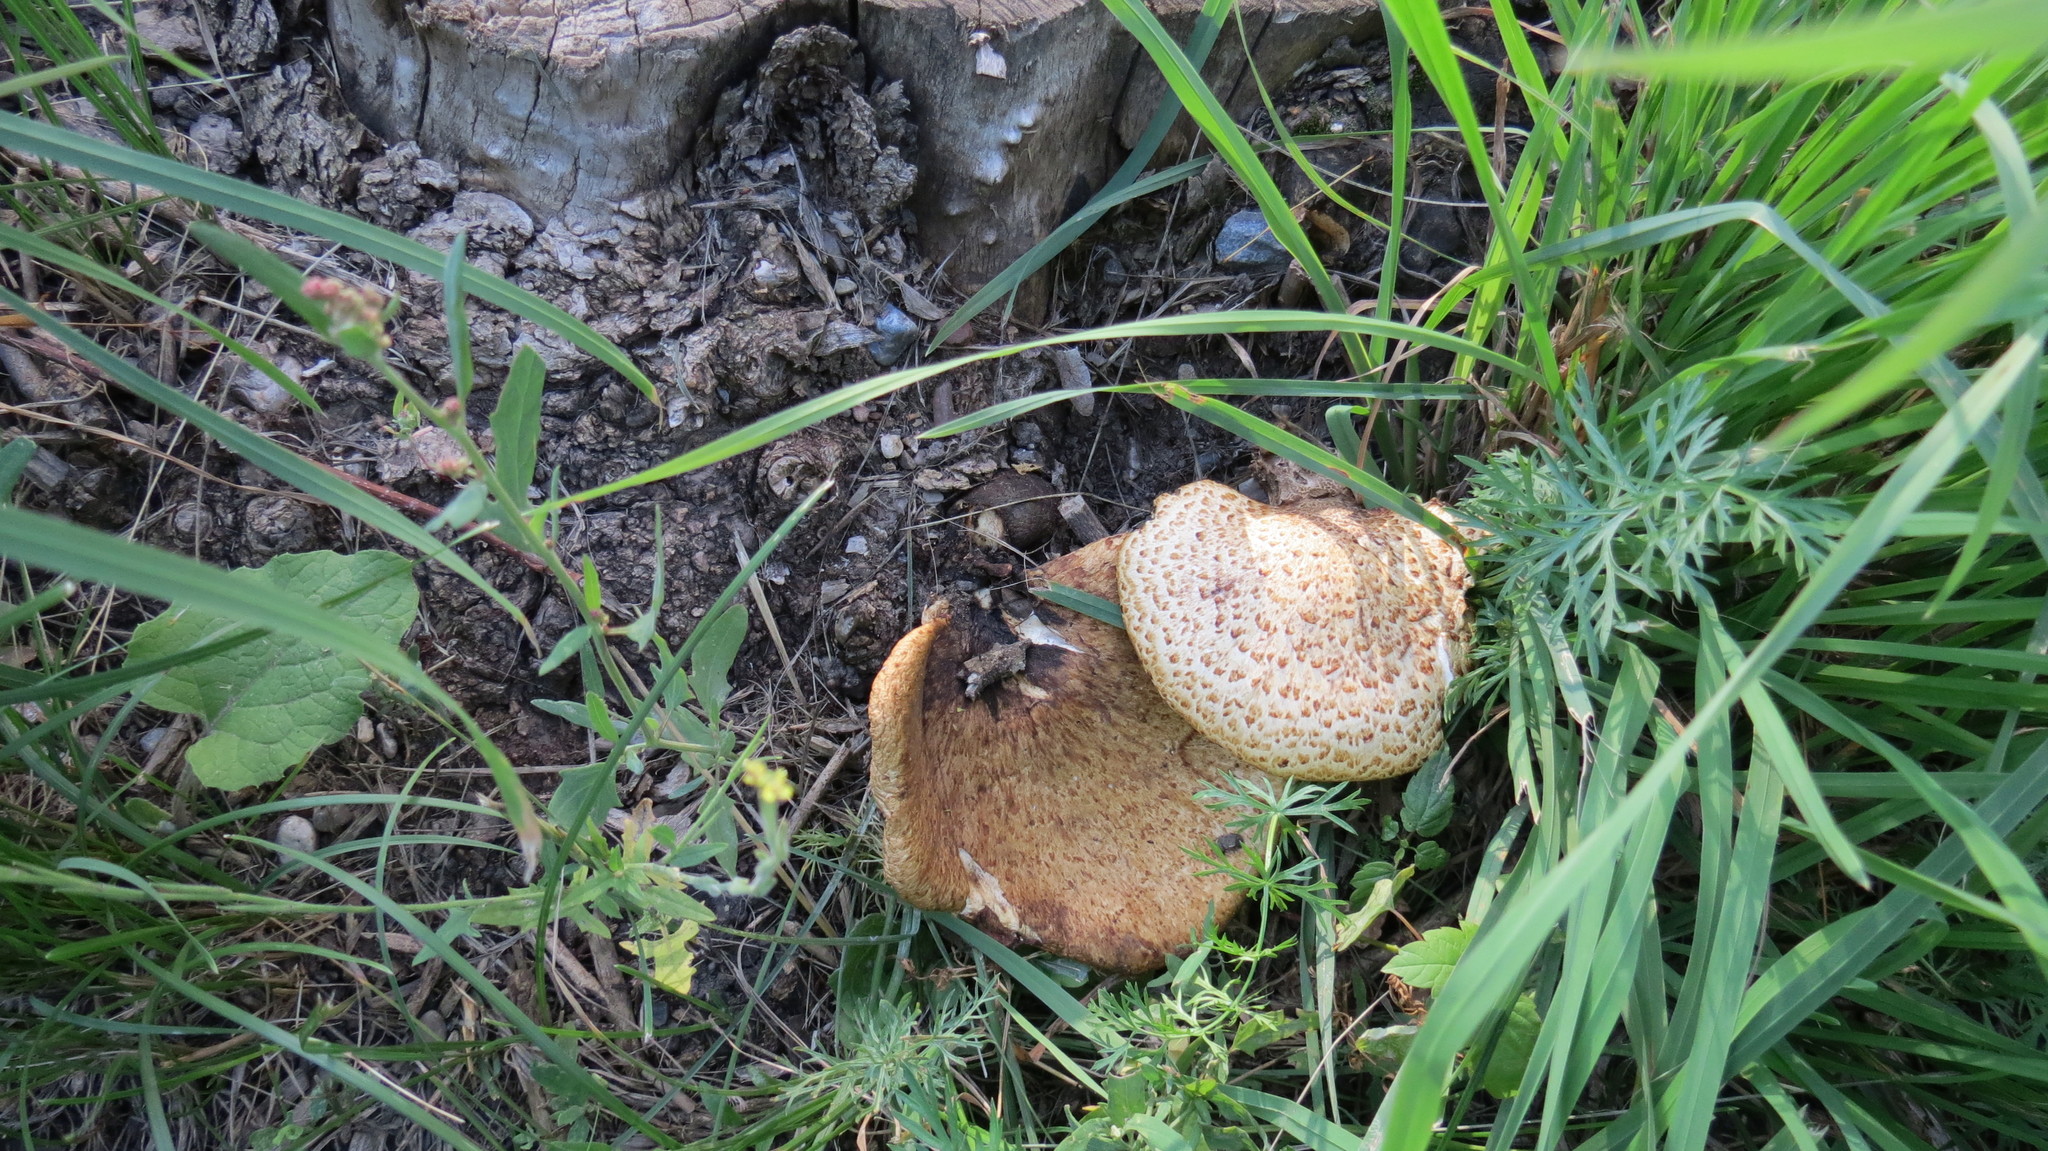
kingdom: Fungi
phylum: Basidiomycota
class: Agaricomycetes
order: Polyporales
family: Polyporaceae
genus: Cerioporus
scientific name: Cerioporus squamosus
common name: Dryad's saddle
